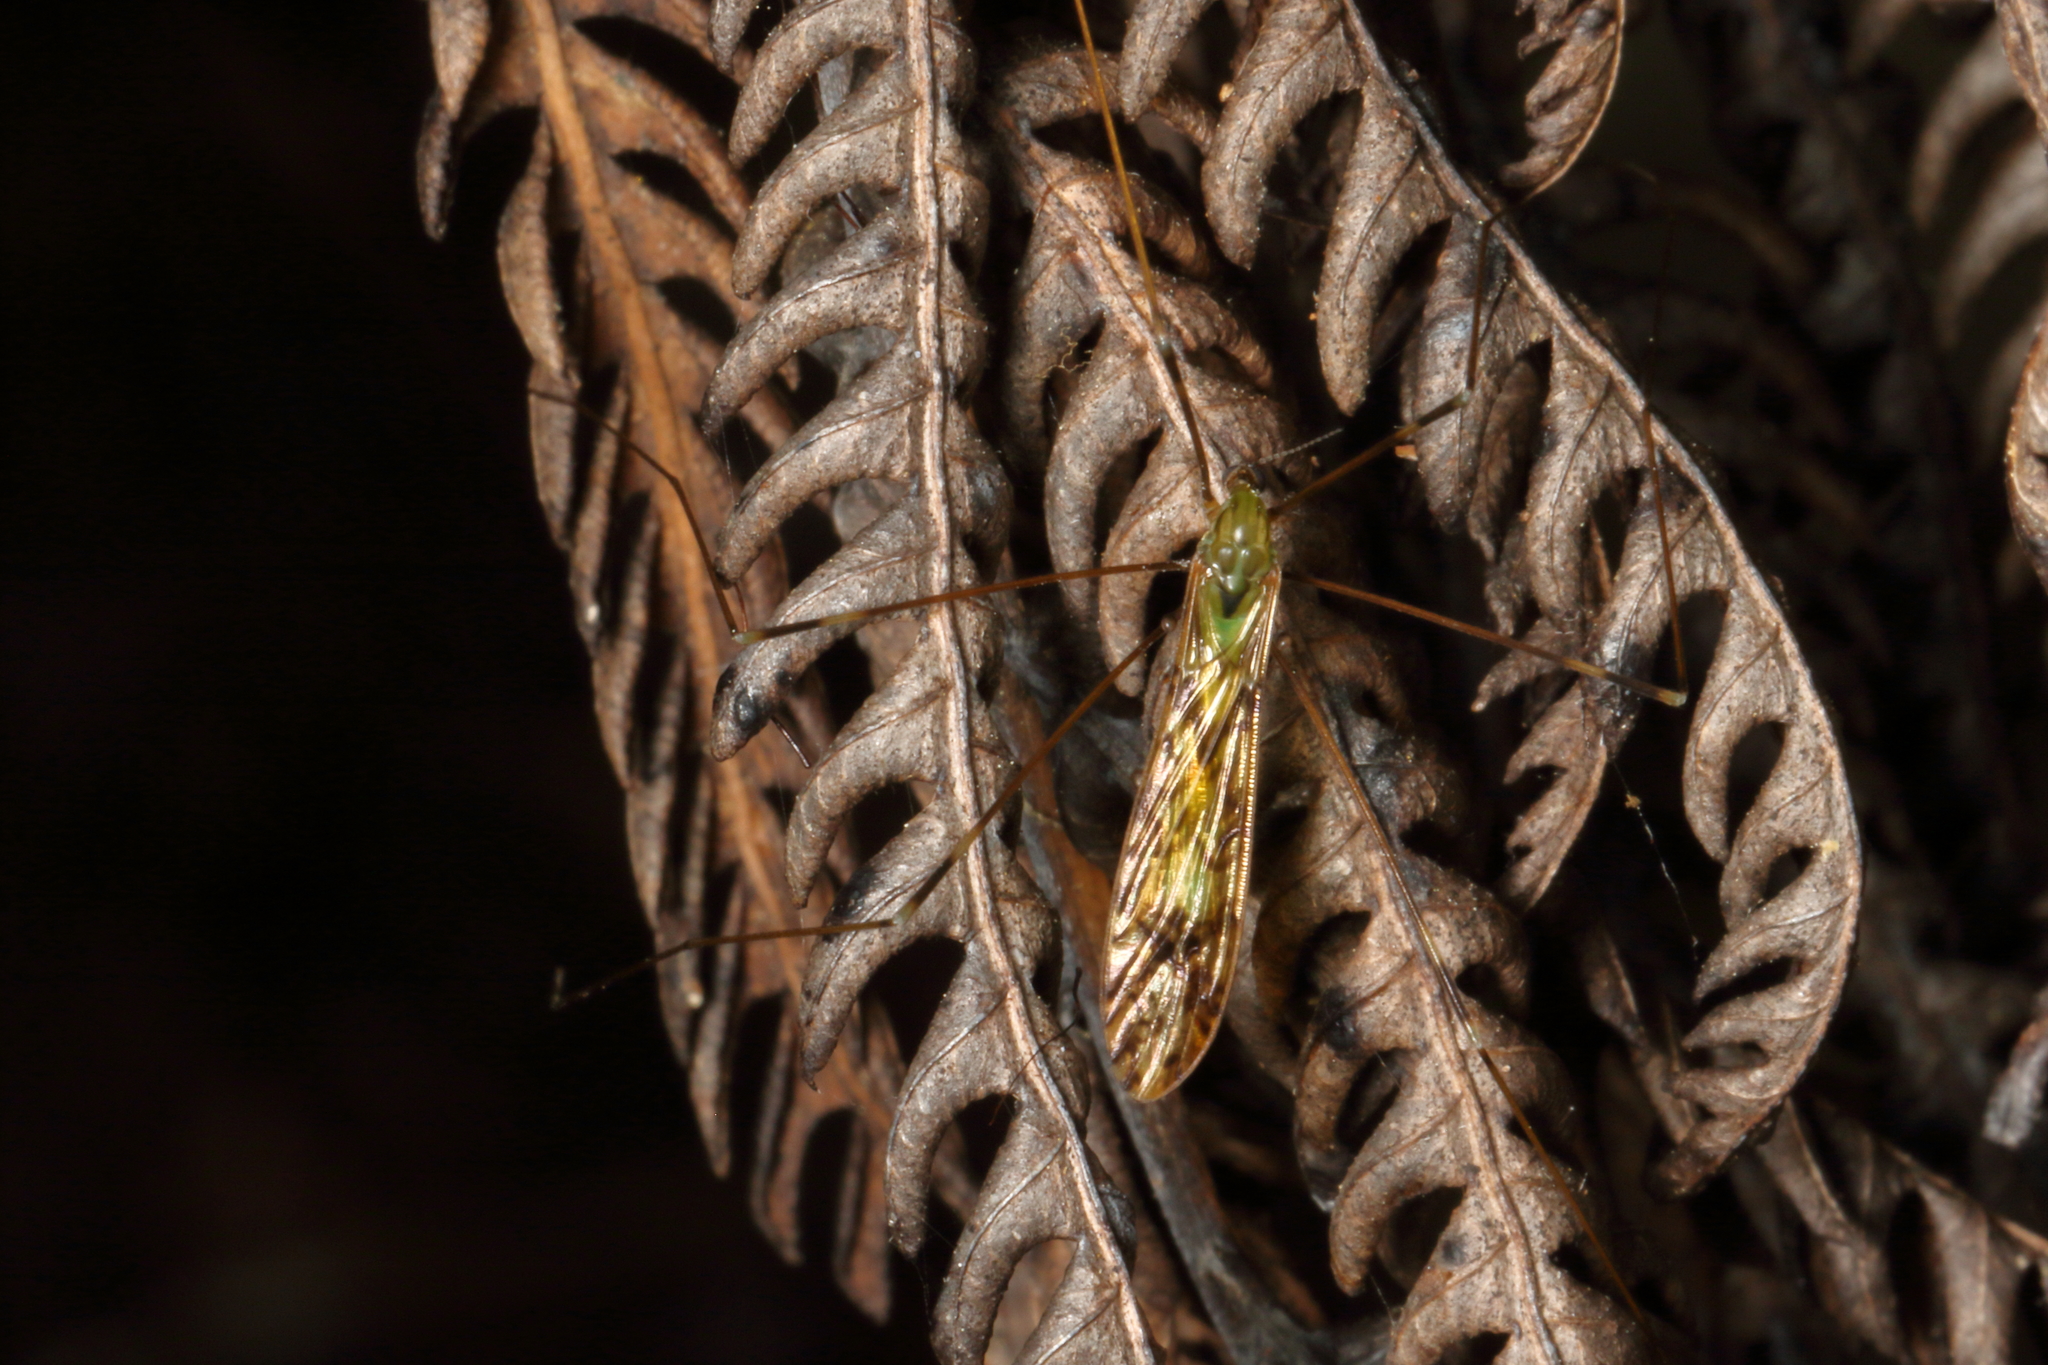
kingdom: Animalia
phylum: Arthropoda
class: Insecta
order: Diptera
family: Limoniidae
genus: Discobola
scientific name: Discobola dohrni
